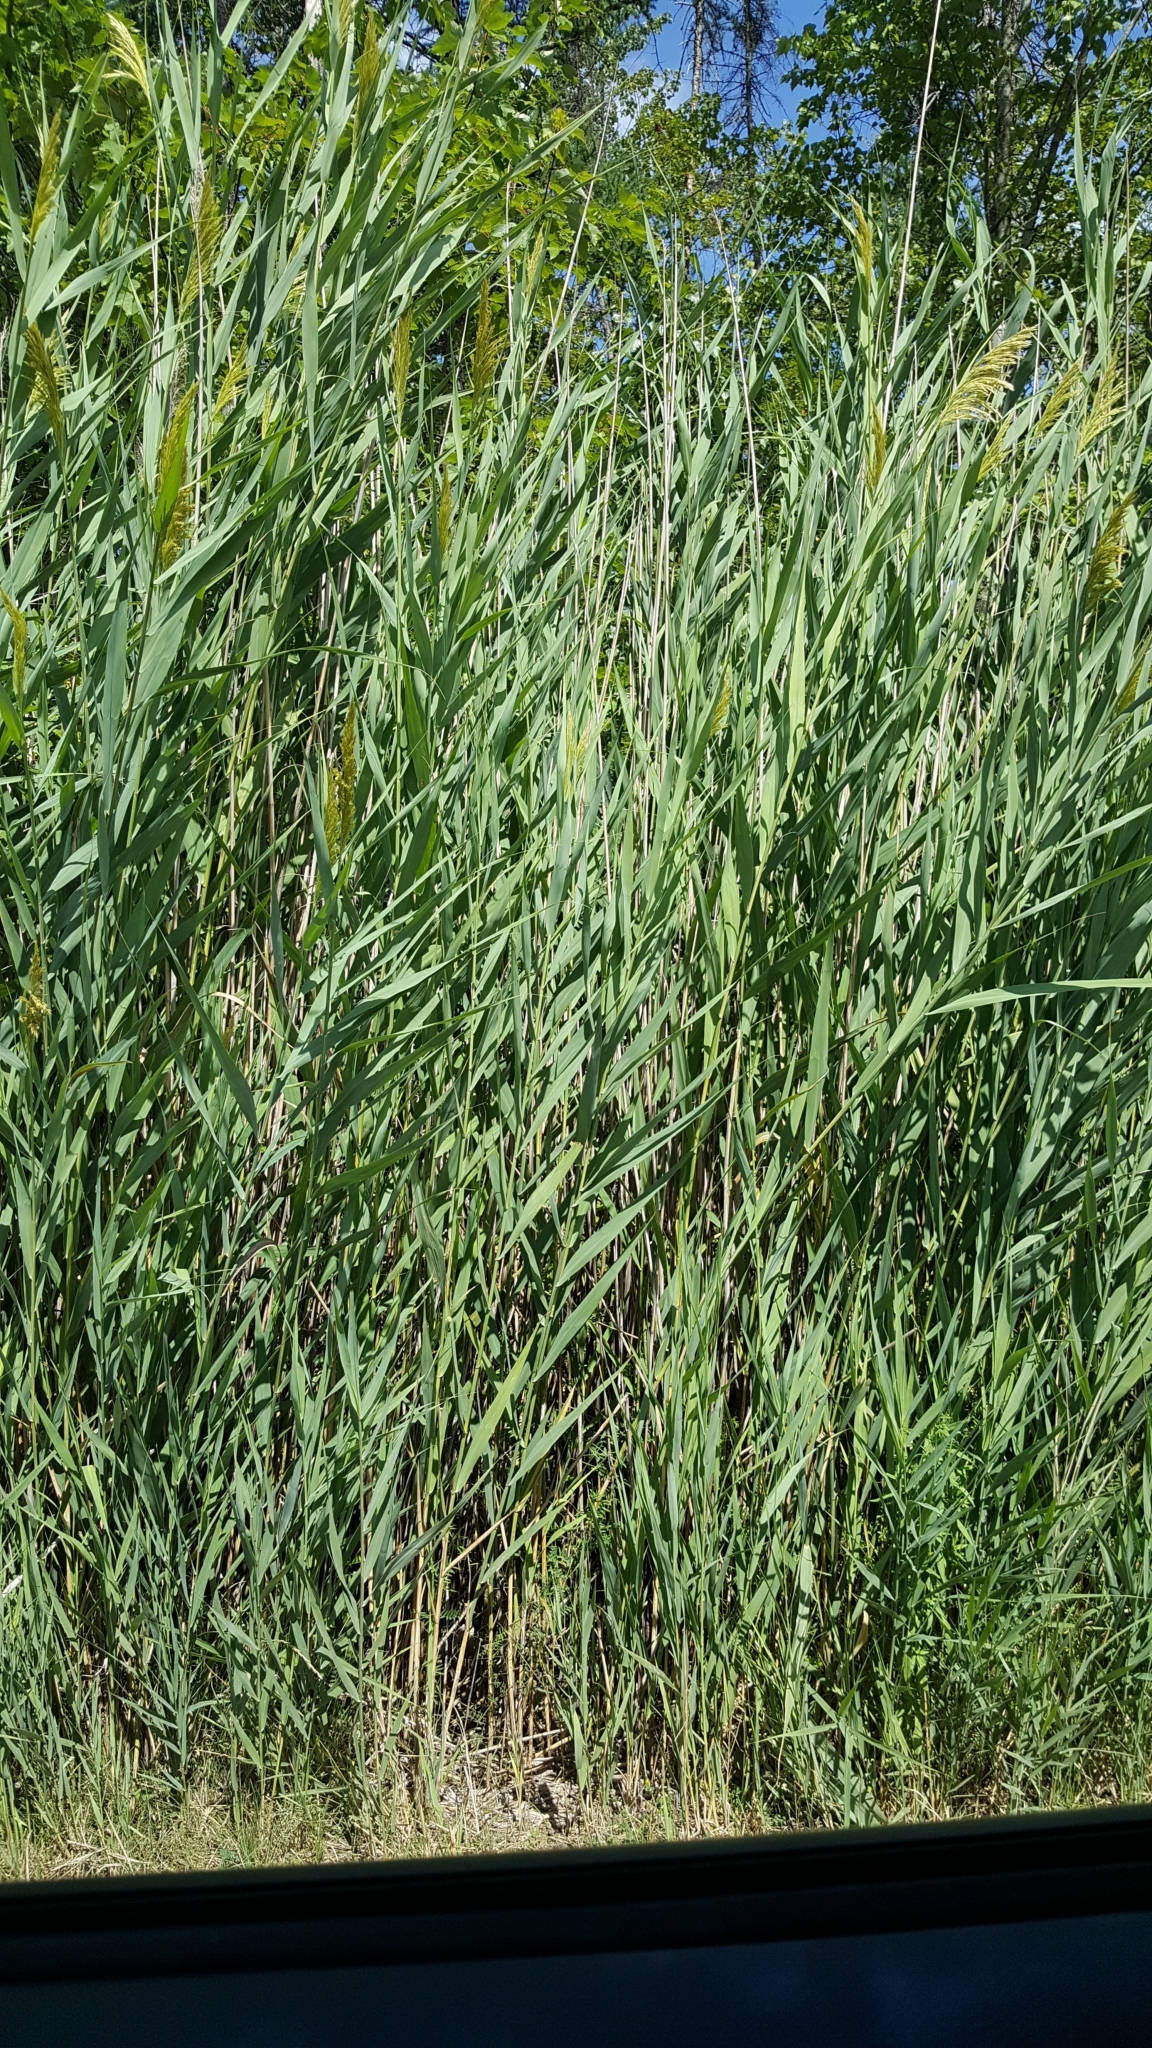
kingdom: Plantae
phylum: Tracheophyta
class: Liliopsida
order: Poales
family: Poaceae
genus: Phragmites
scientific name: Phragmites australis
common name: Common reed
